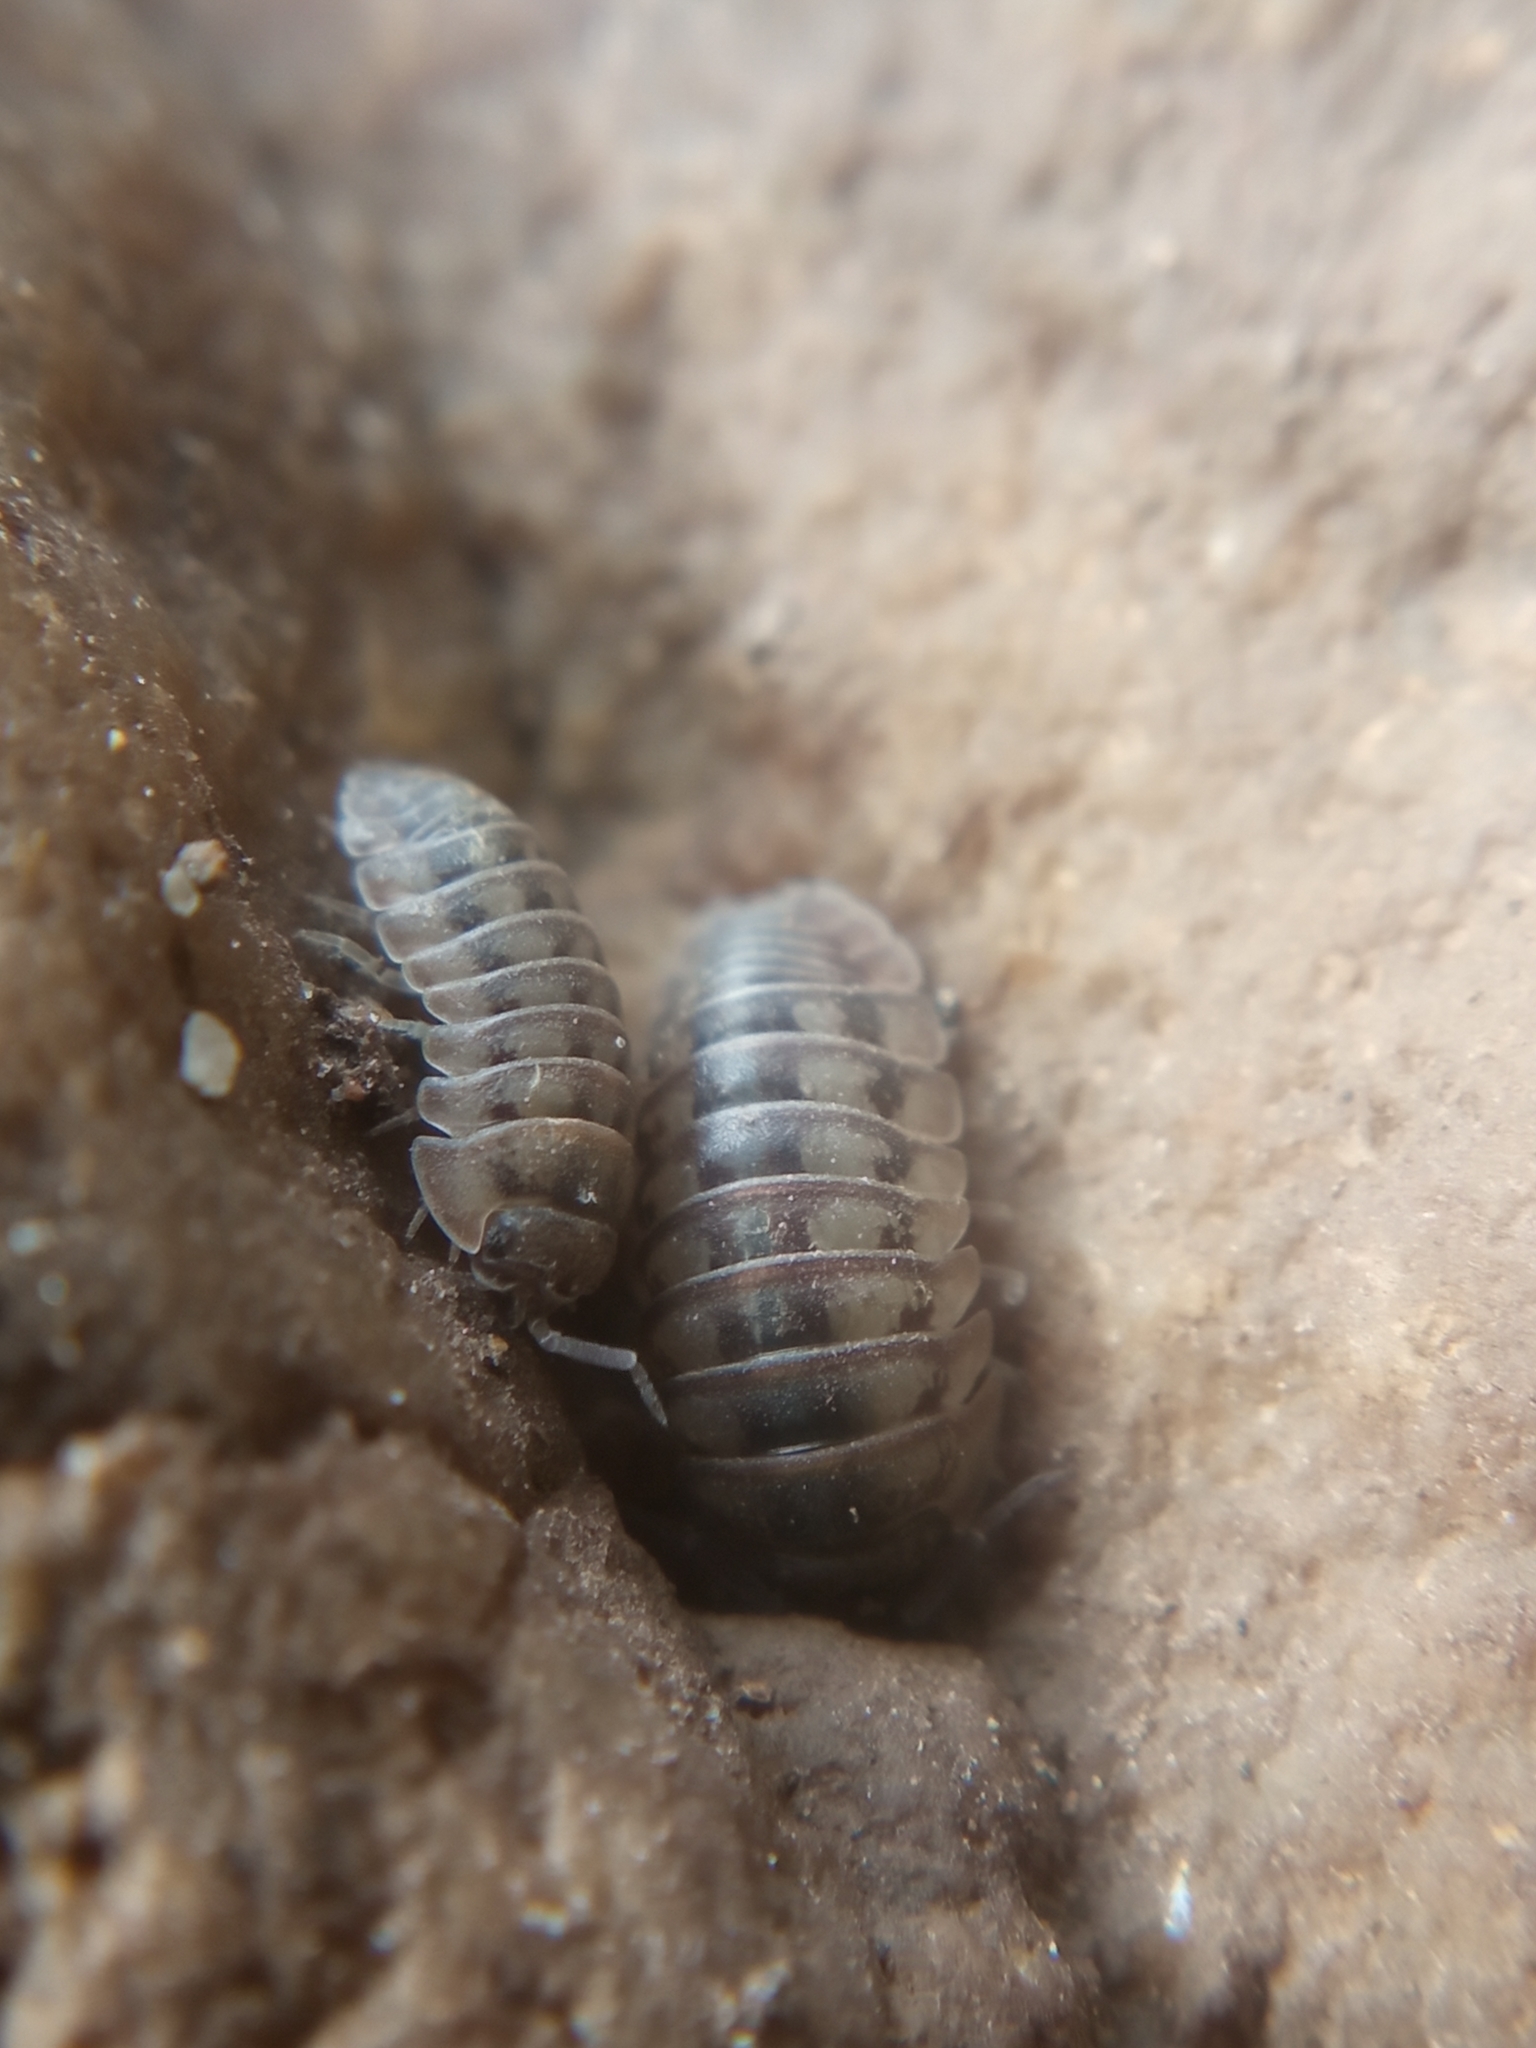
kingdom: Animalia
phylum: Arthropoda
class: Malacostraca
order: Isopoda
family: Armadillidiidae
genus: Armadillidium
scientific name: Armadillidium nasatum
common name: Isopod
